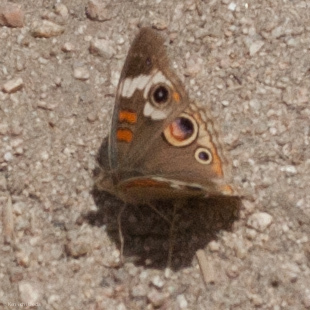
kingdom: Animalia
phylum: Arthropoda
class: Insecta
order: Lepidoptera
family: Nymphalidae
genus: Junonia
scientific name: Junonia grisea
